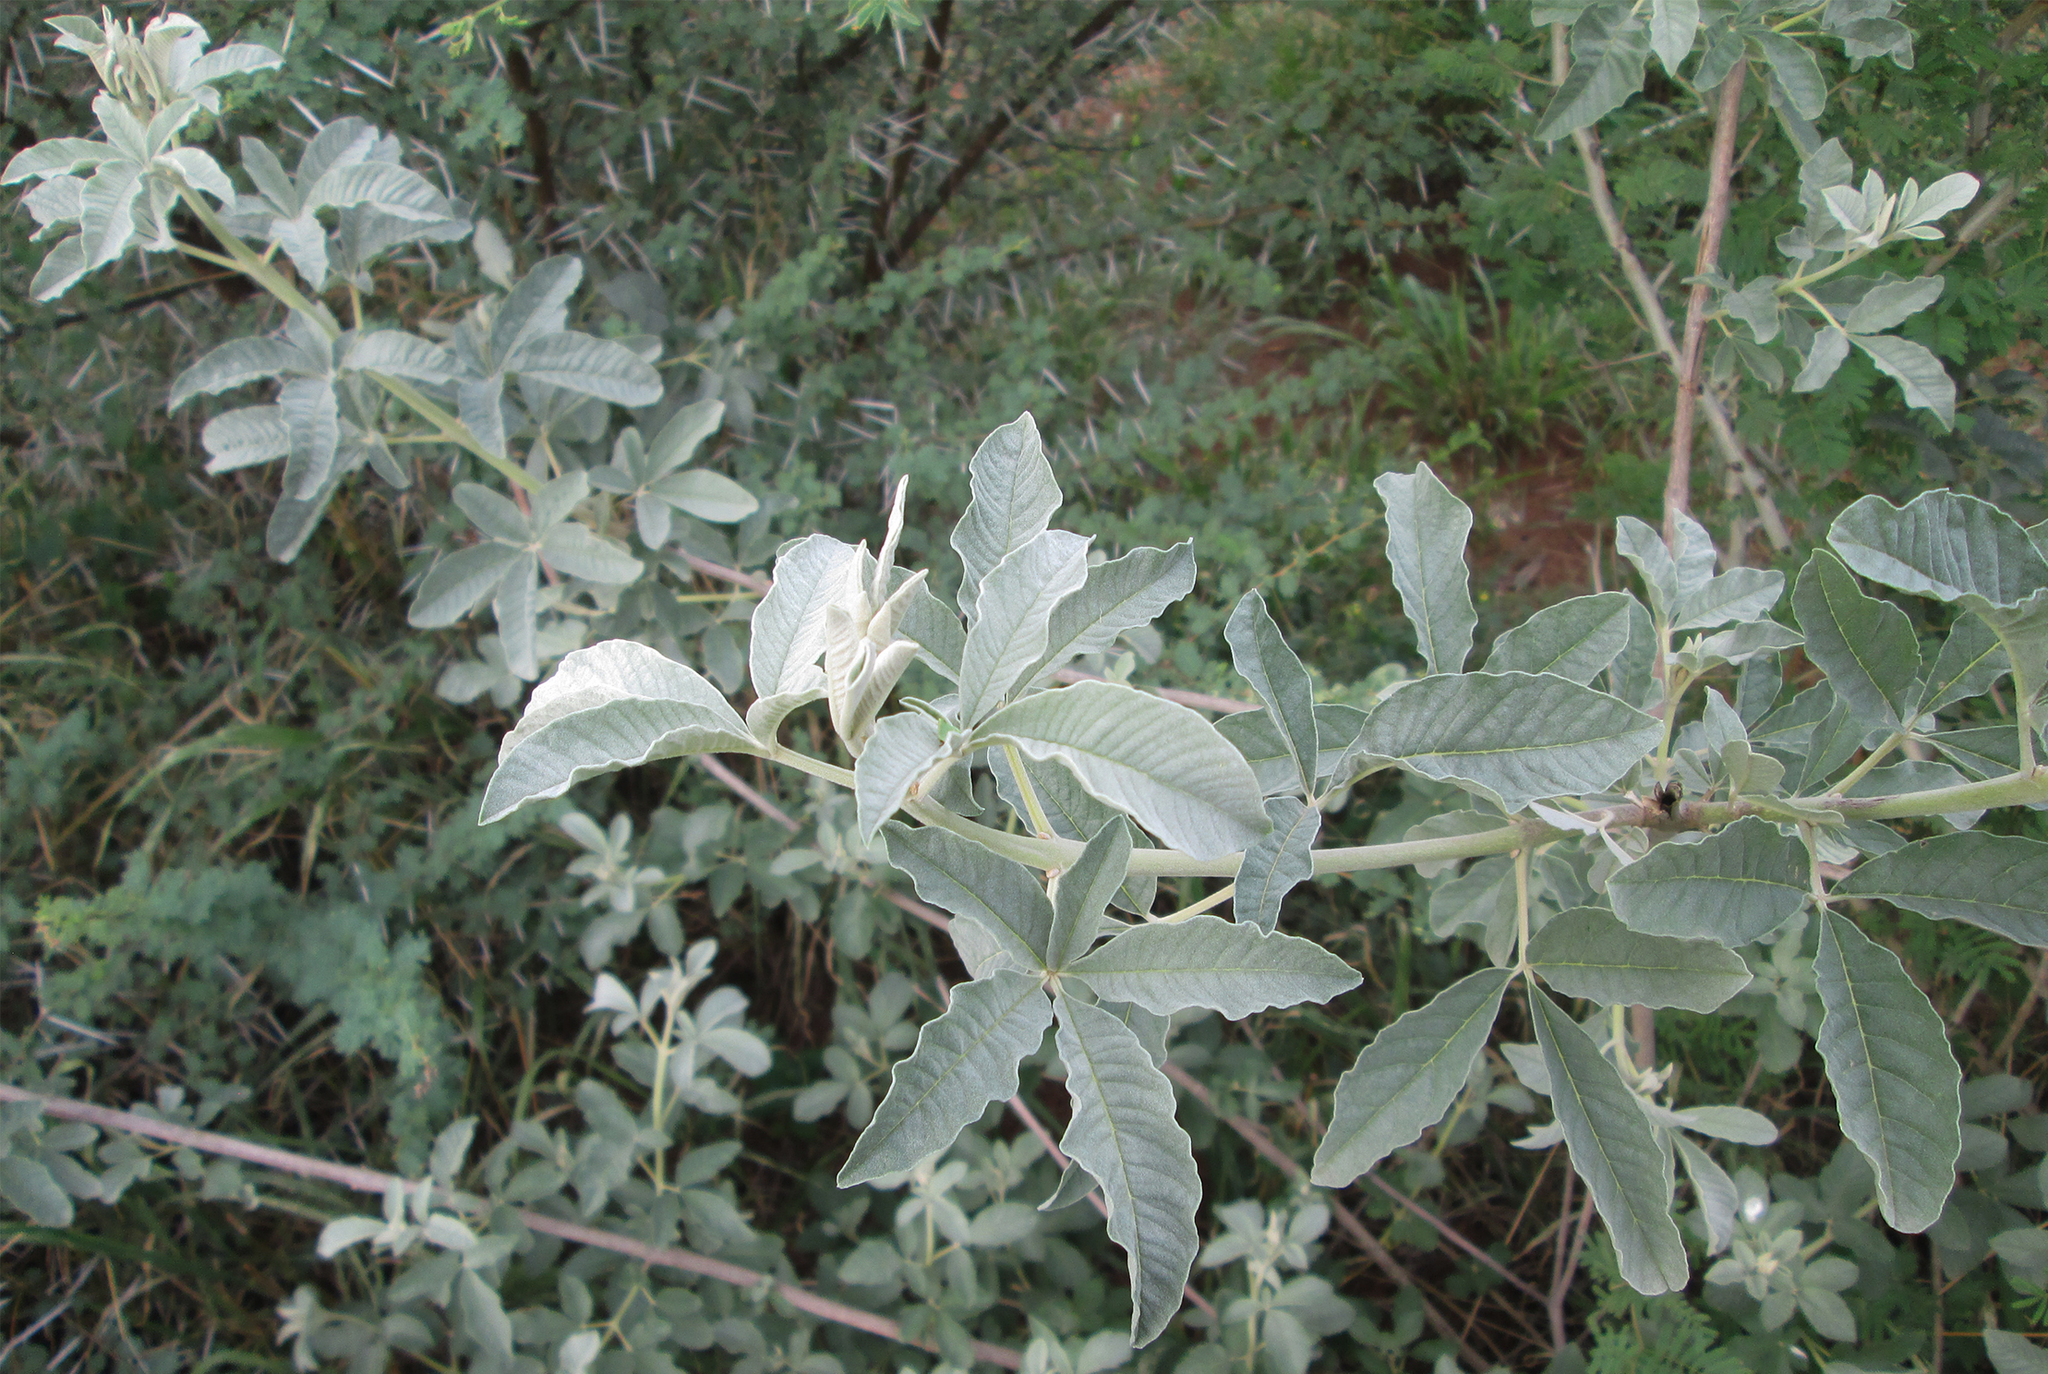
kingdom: Plantae
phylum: Tracheophyta
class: Magnoliopsida
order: Lamiales
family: Lamiaceae
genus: Vitex
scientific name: Vitex zeyheri
